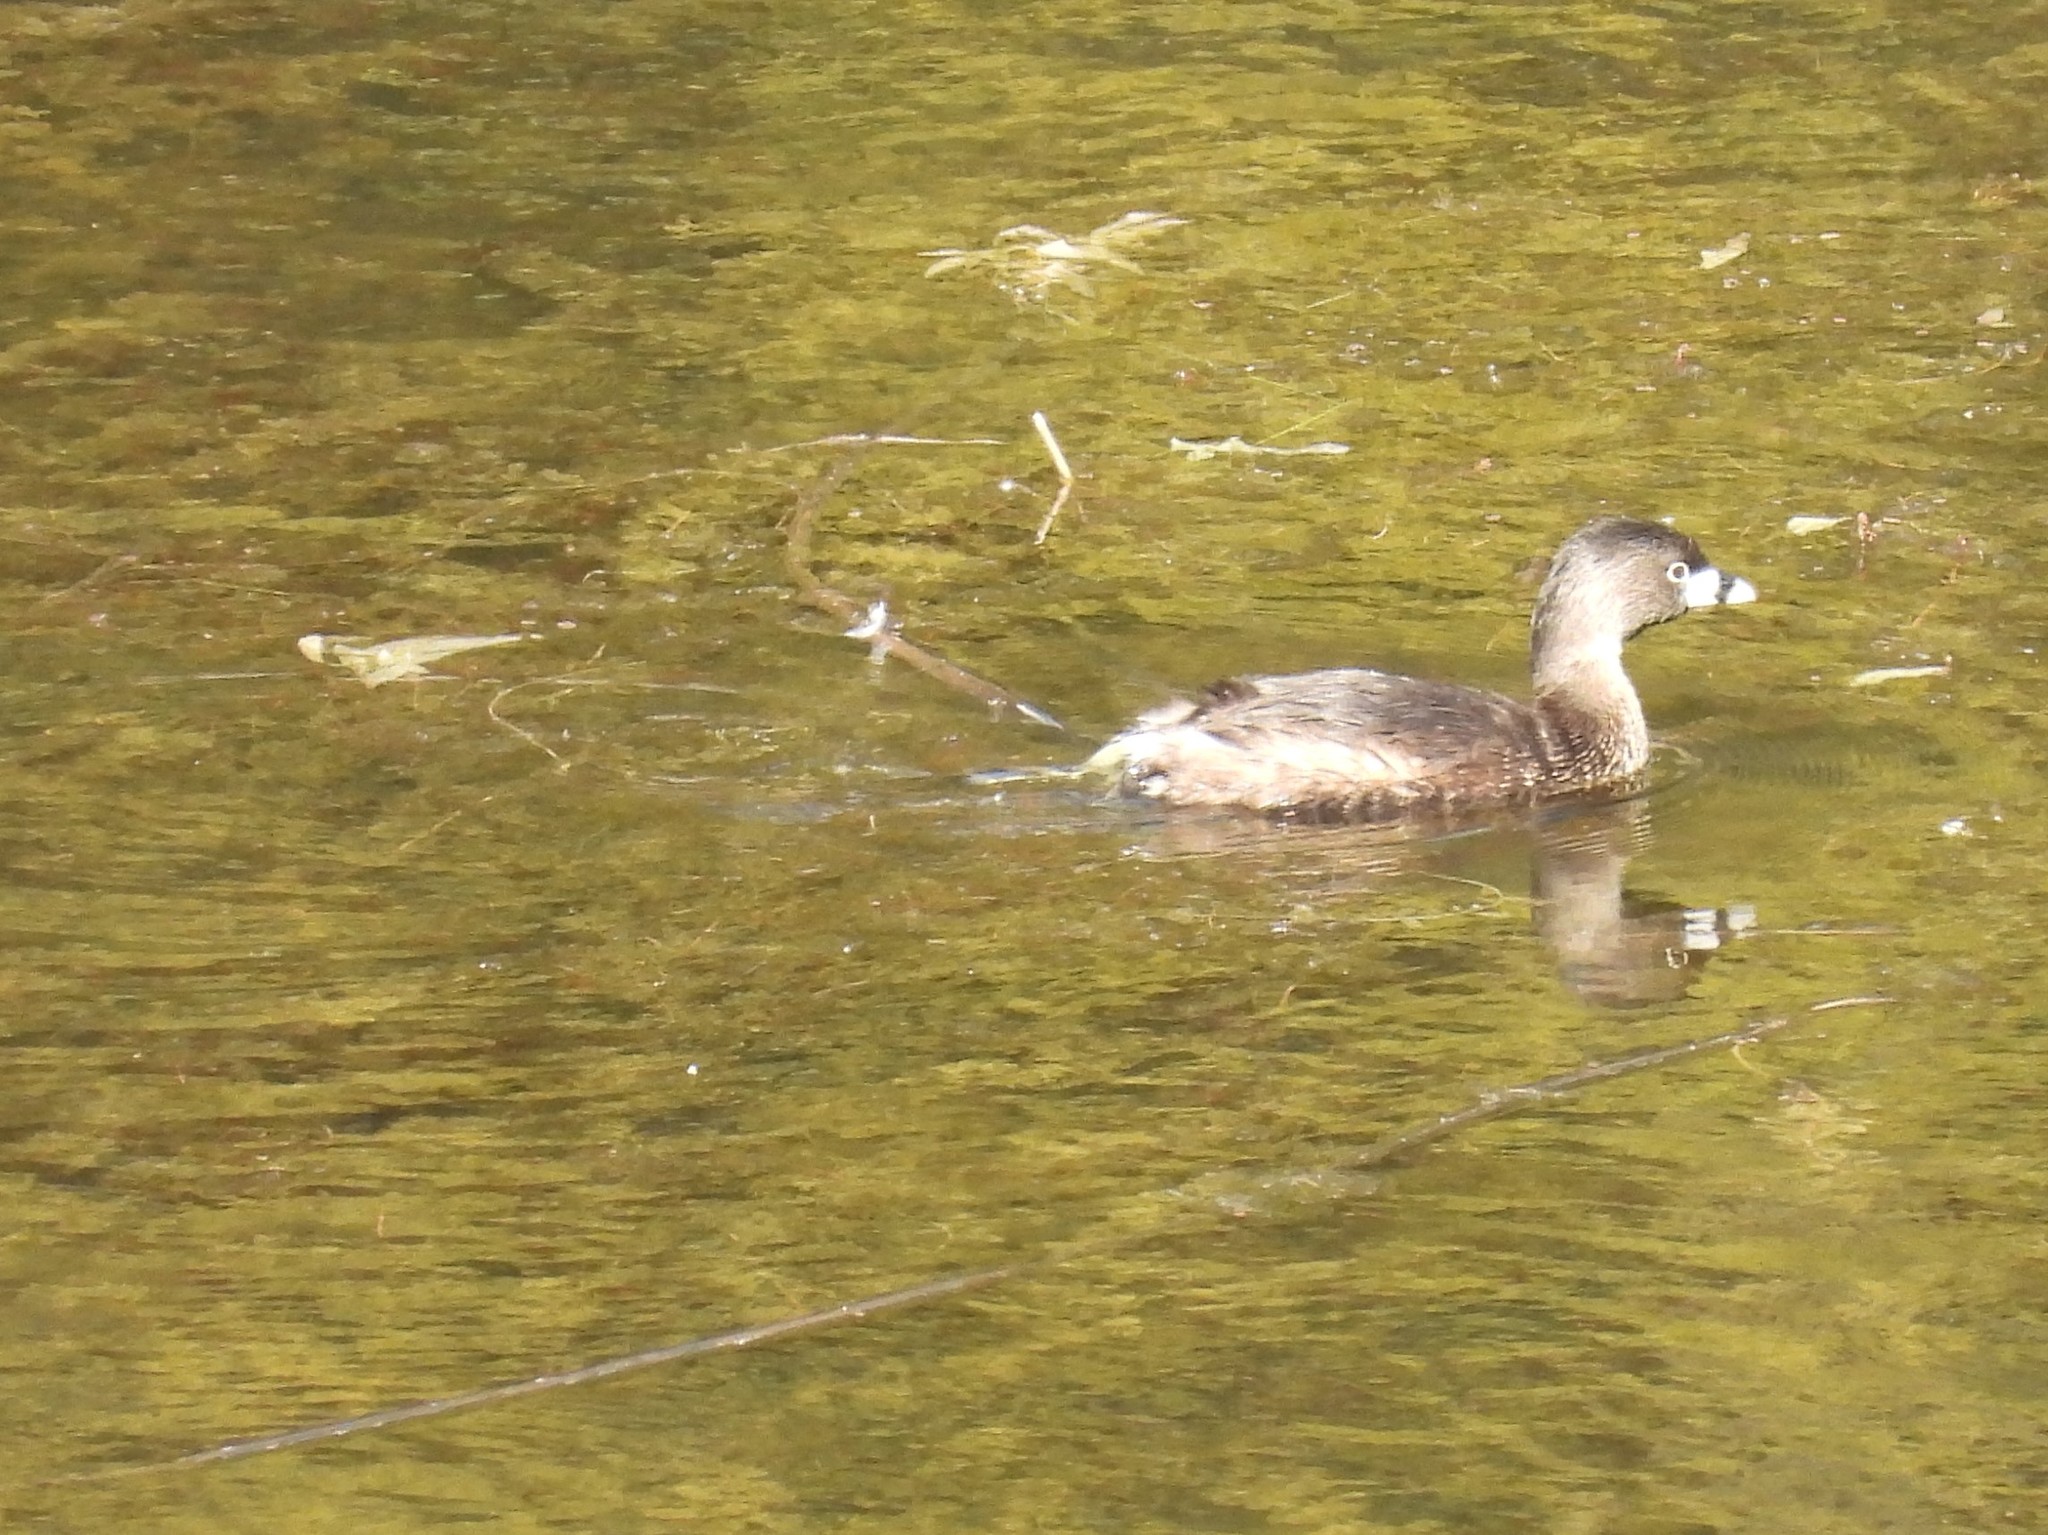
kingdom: Animalia
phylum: Chordata
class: Aves
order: Podicipediformes
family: Podicipedidae
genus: Podilymbus
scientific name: Podilymbus podiceps
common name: Pied-billed grebe
